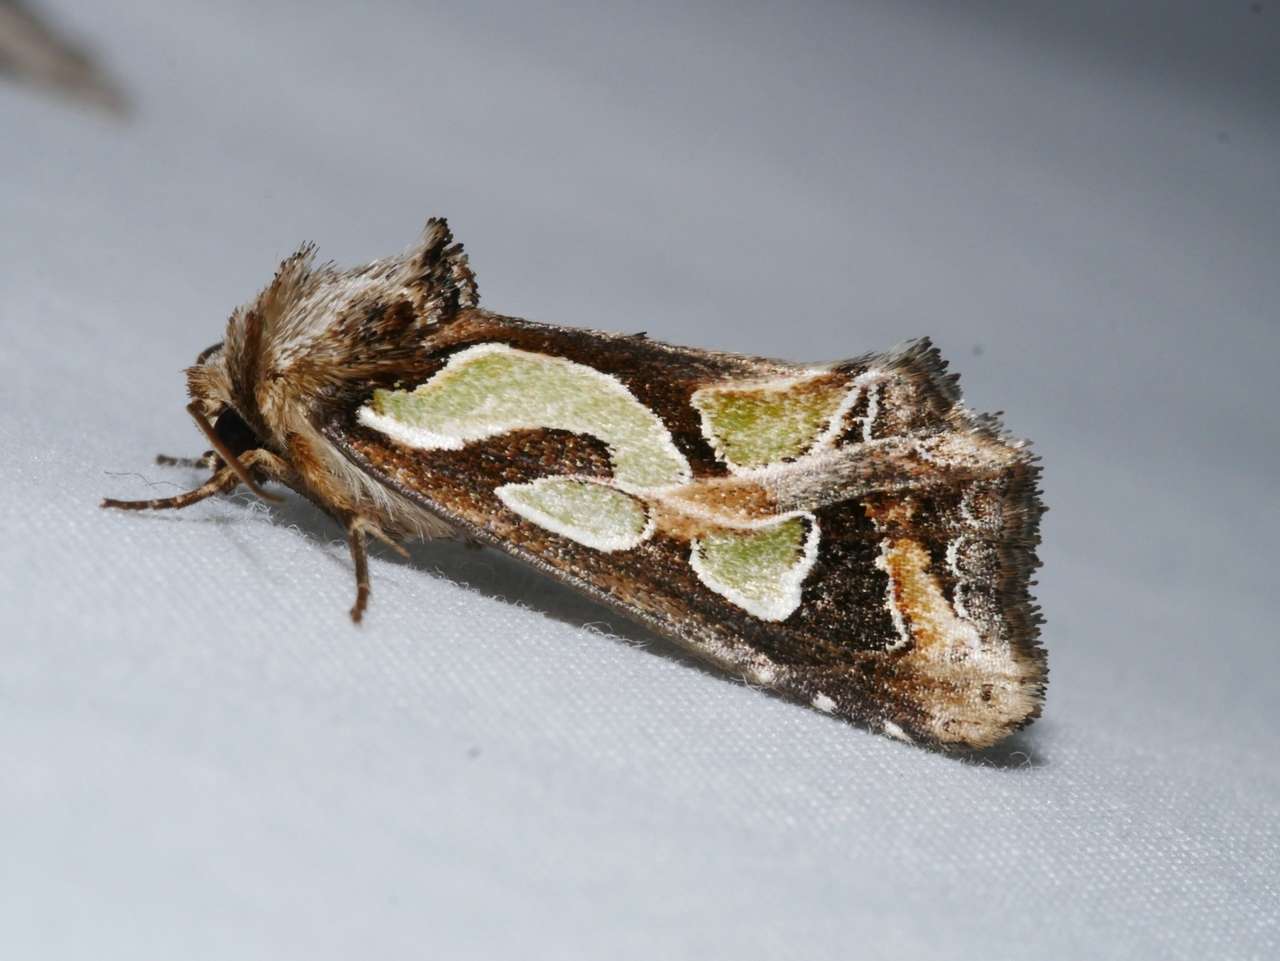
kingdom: Animalia
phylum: Arthropoda
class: Insecta
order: Lepidoptera
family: Noctuidae
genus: Cosmodes
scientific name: Cosmodes elegans
